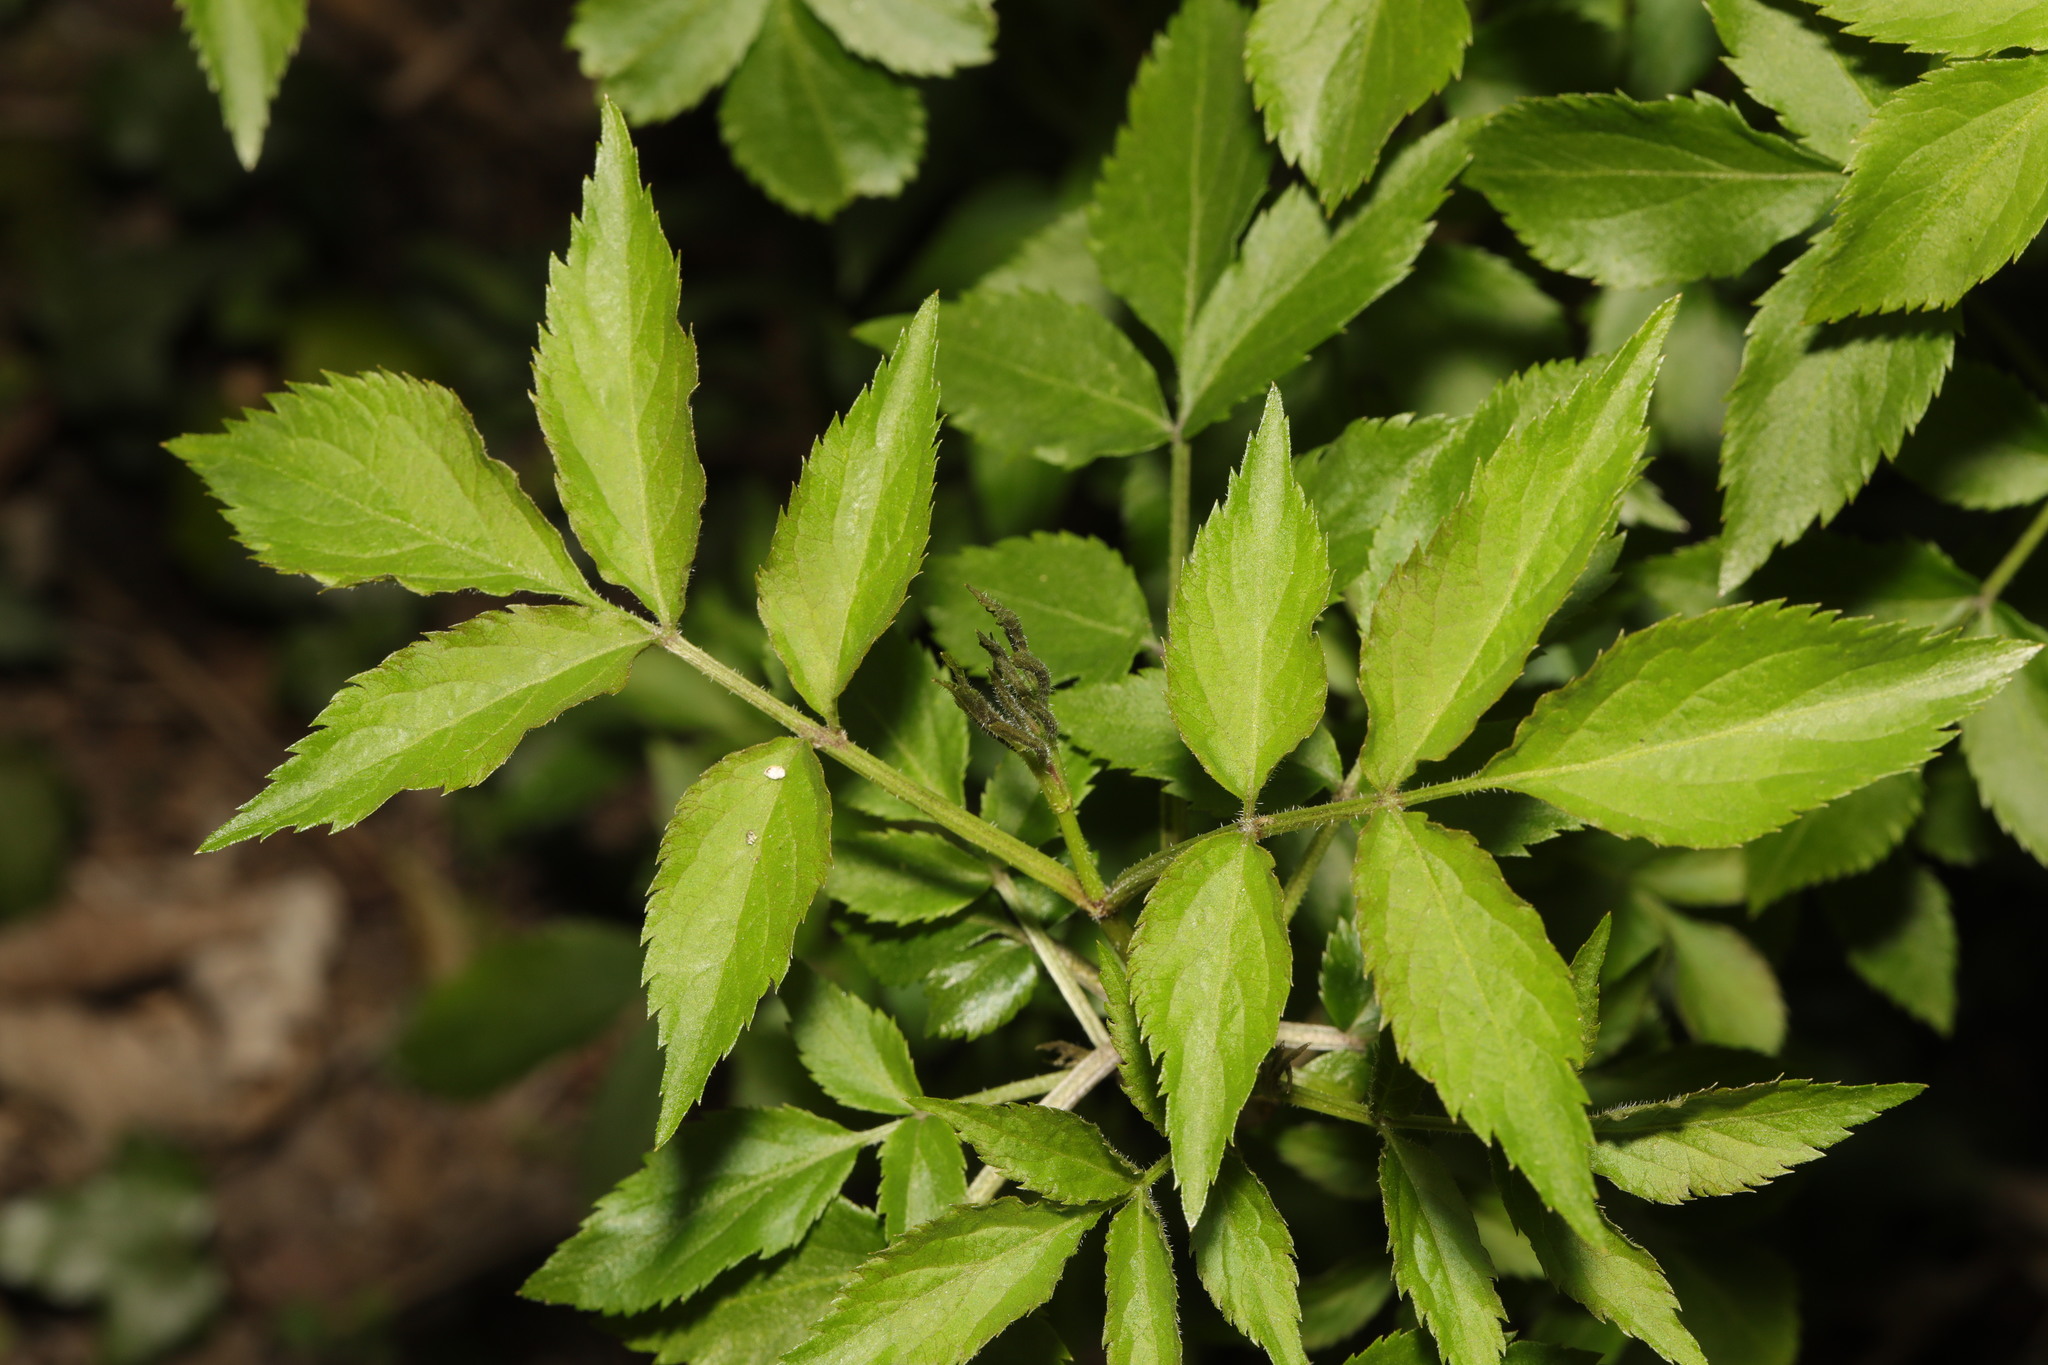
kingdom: Plantae
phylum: Tracheophyta
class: Magnoliopsida
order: Dipsacales
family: Viburnaceae
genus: Sambucus
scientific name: Sambucus nigra
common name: Elder
